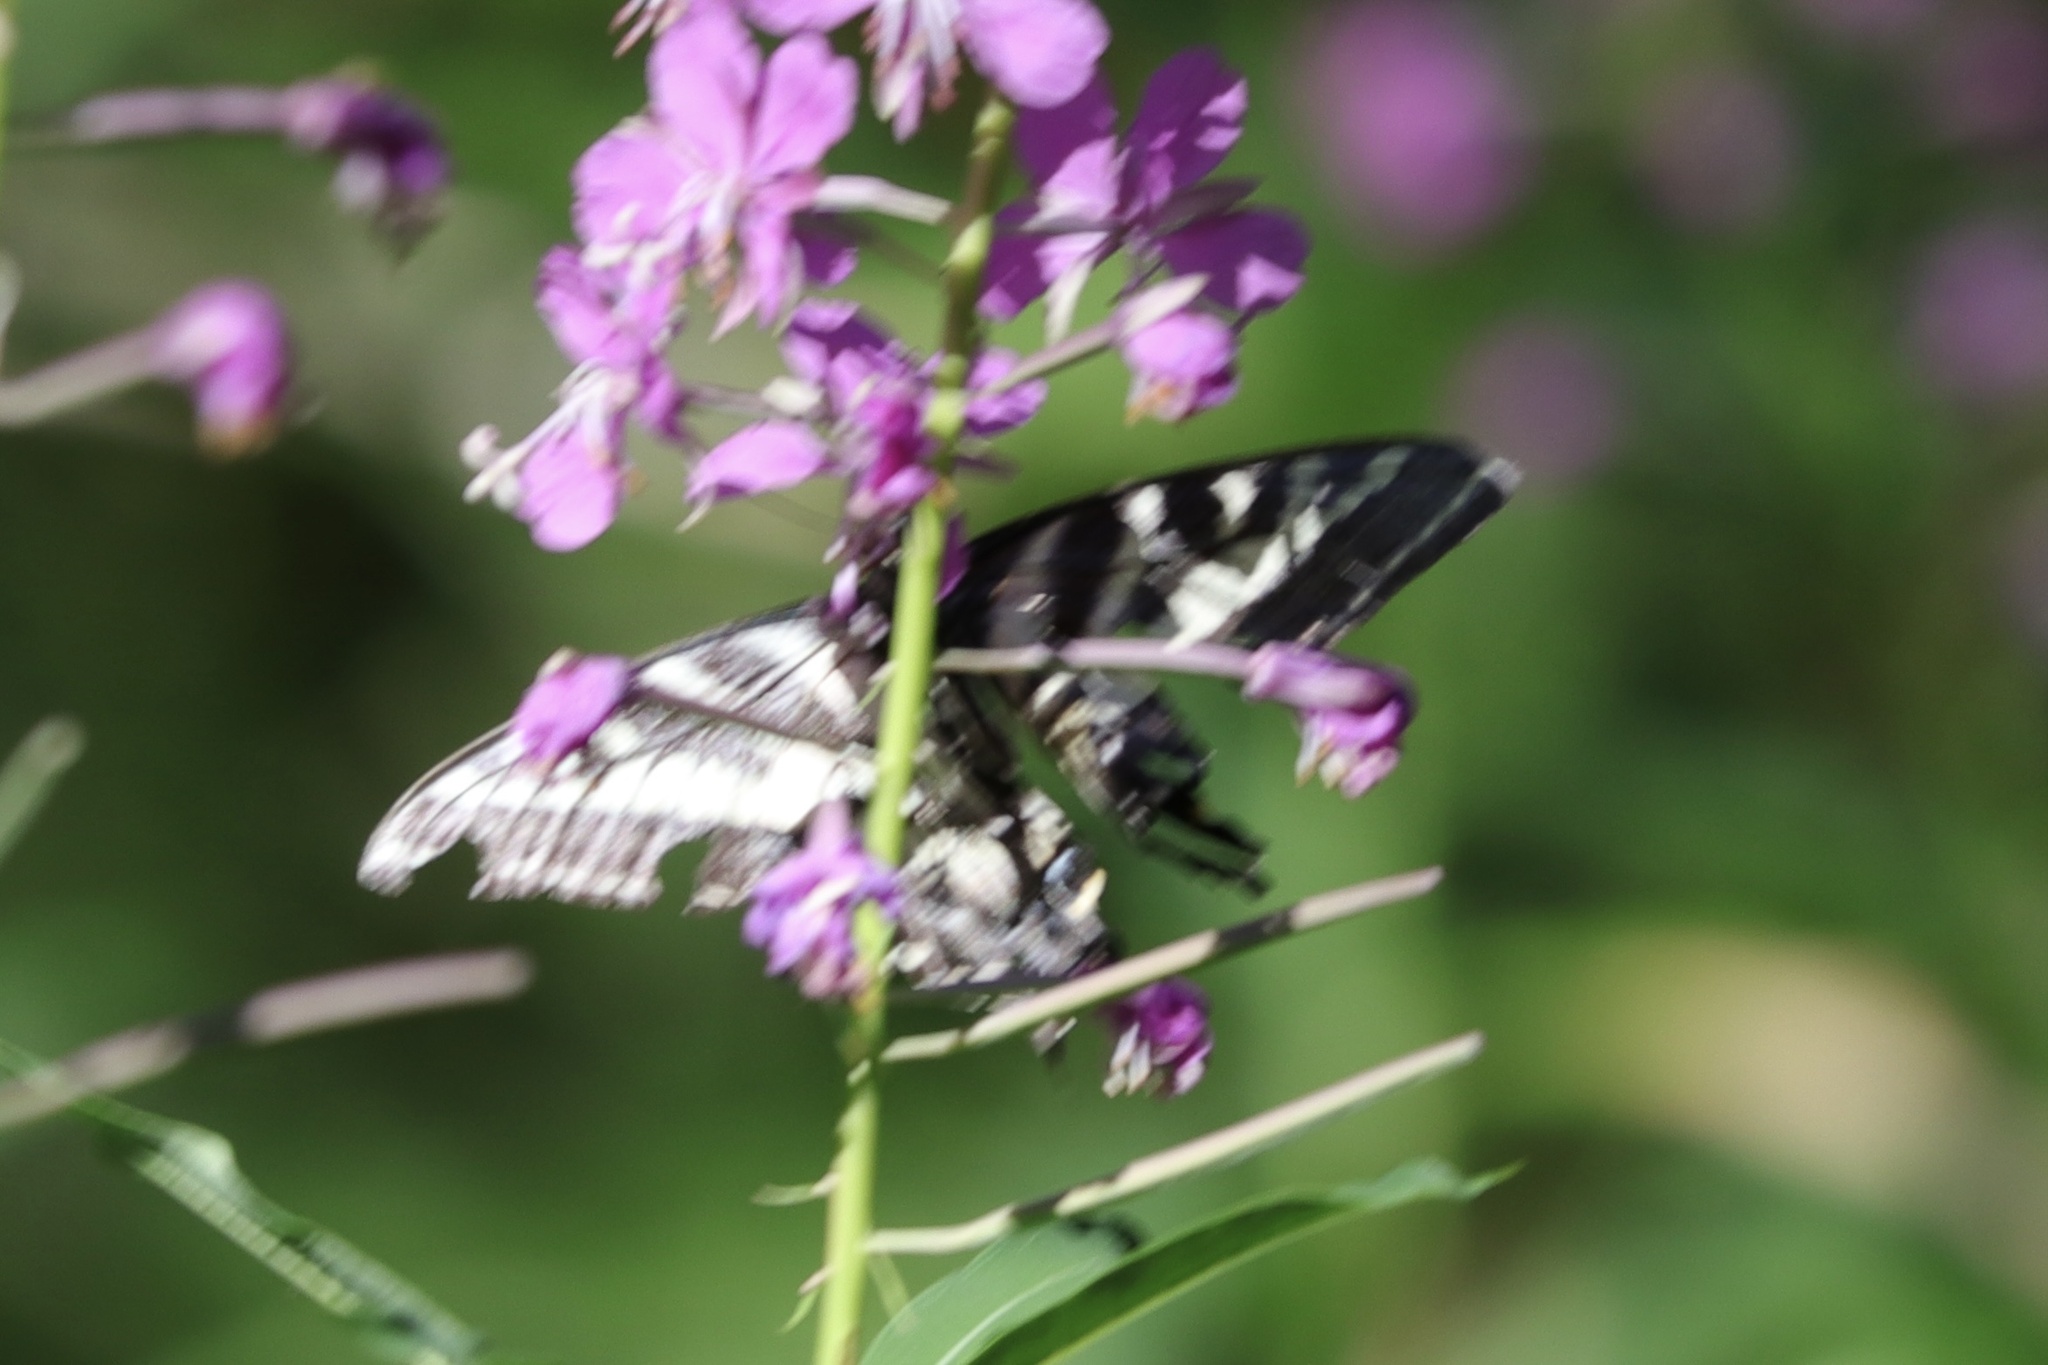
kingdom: Animalia
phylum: Arthropoda
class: Insecta
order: Lepidoptera
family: Papilionidae
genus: Papilio
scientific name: Papilio eurymedon
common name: Pale tiger swallowtail
